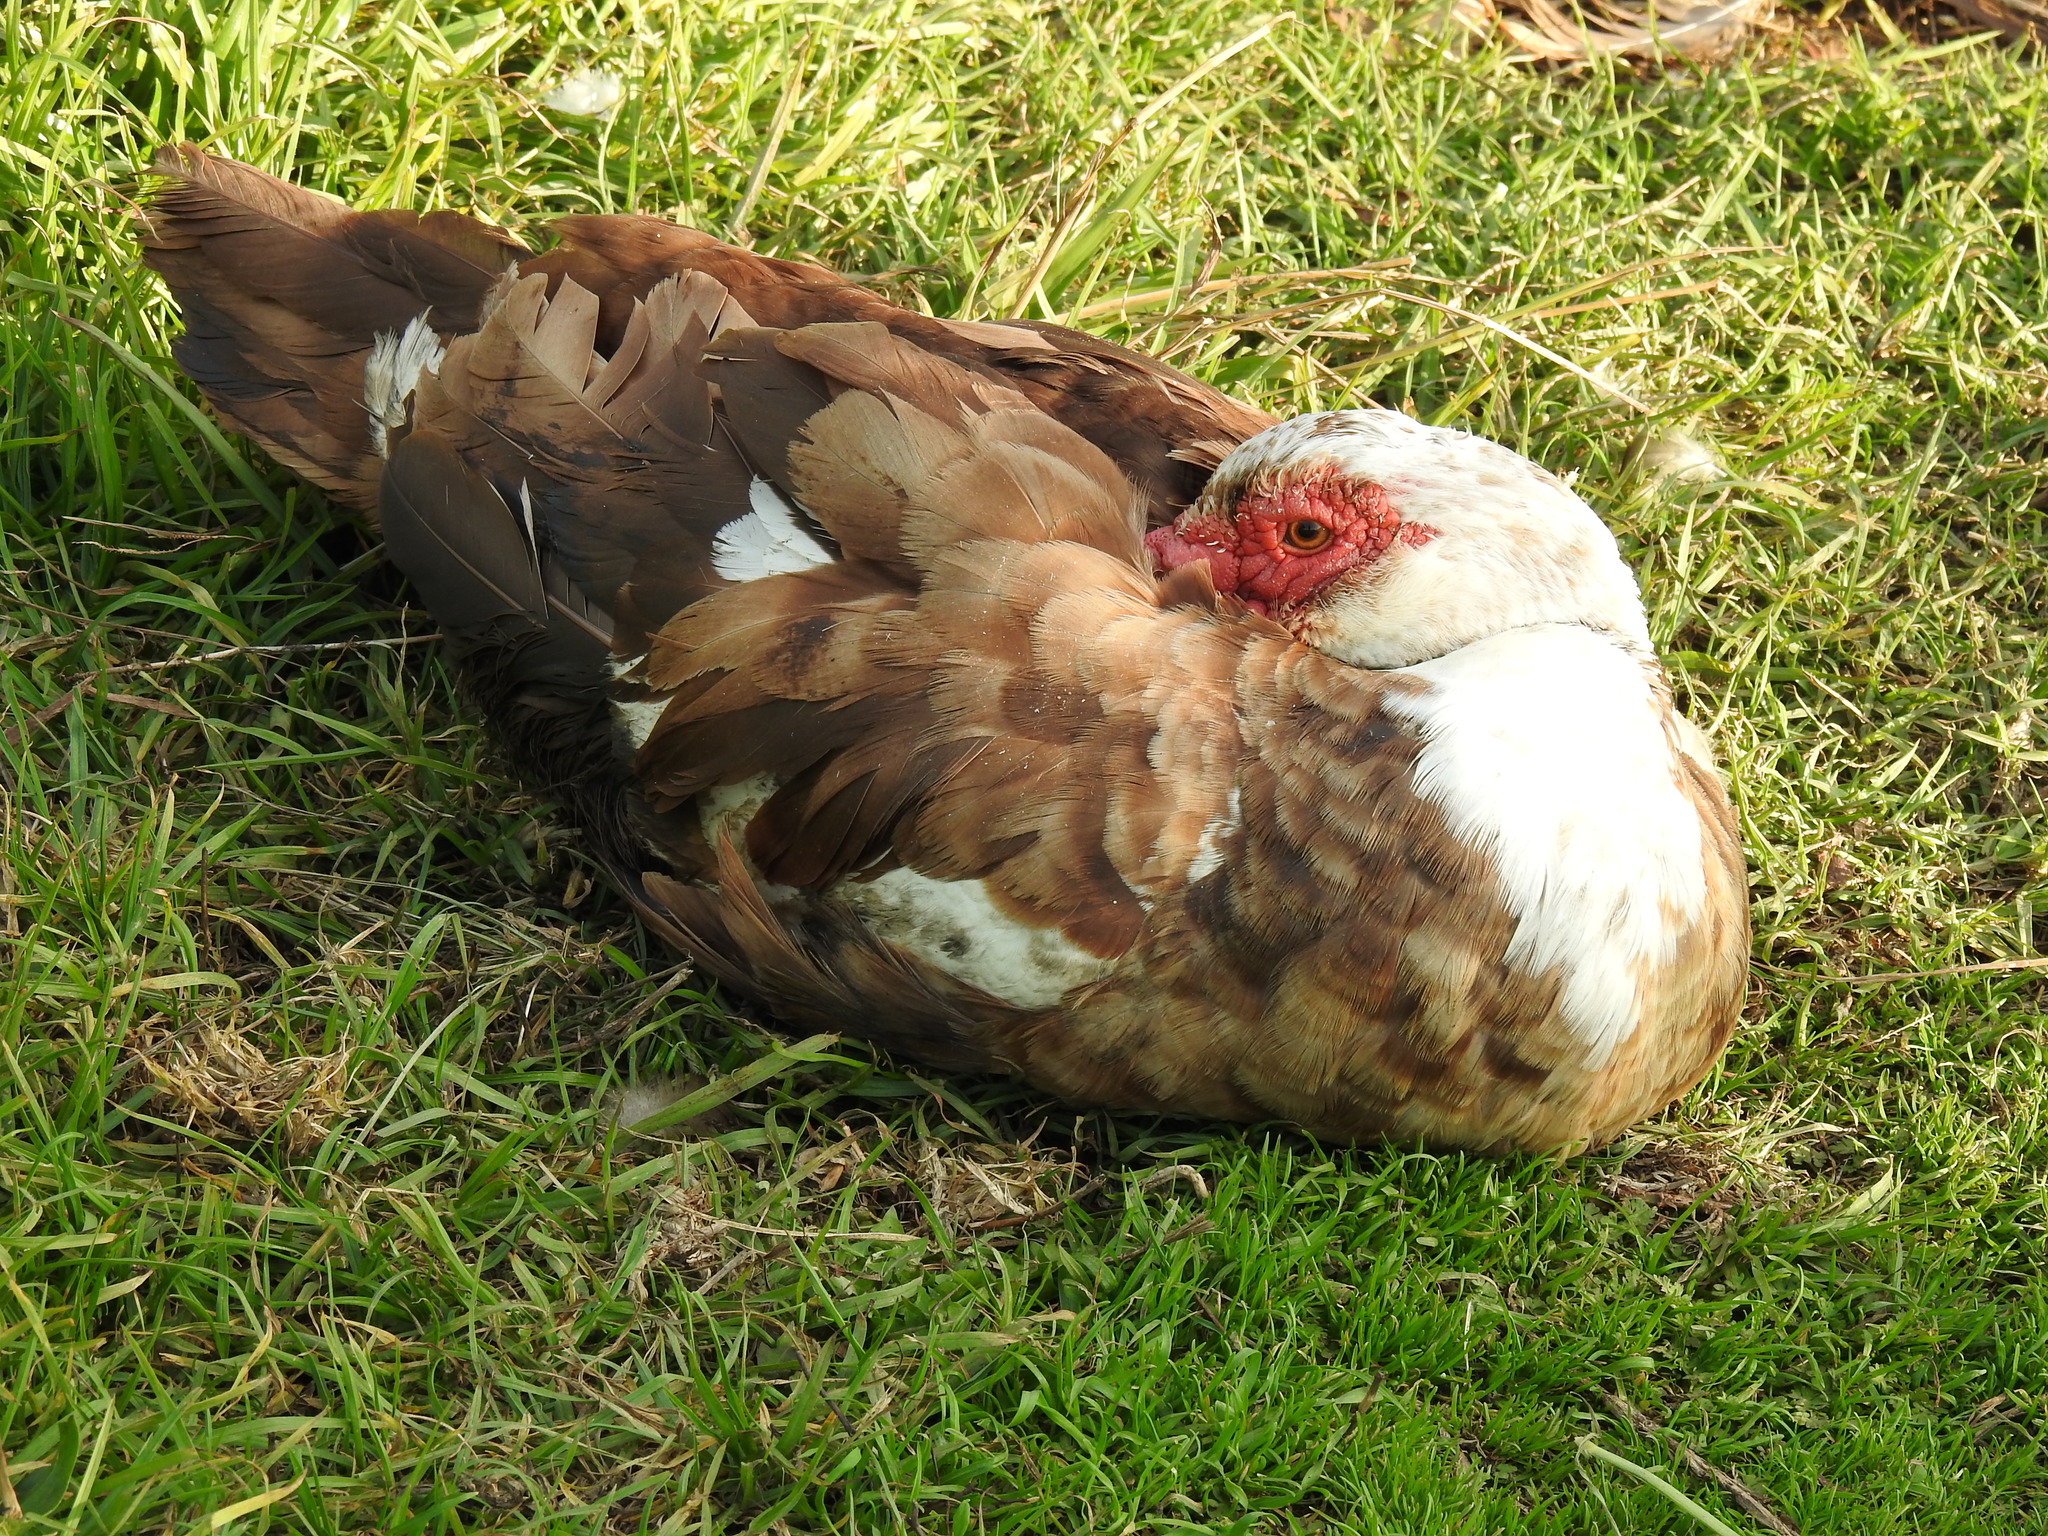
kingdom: Animalia
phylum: Chordata
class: Aves
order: Anseriformes
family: Anatidae
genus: Cairina
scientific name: Cairina moschata
